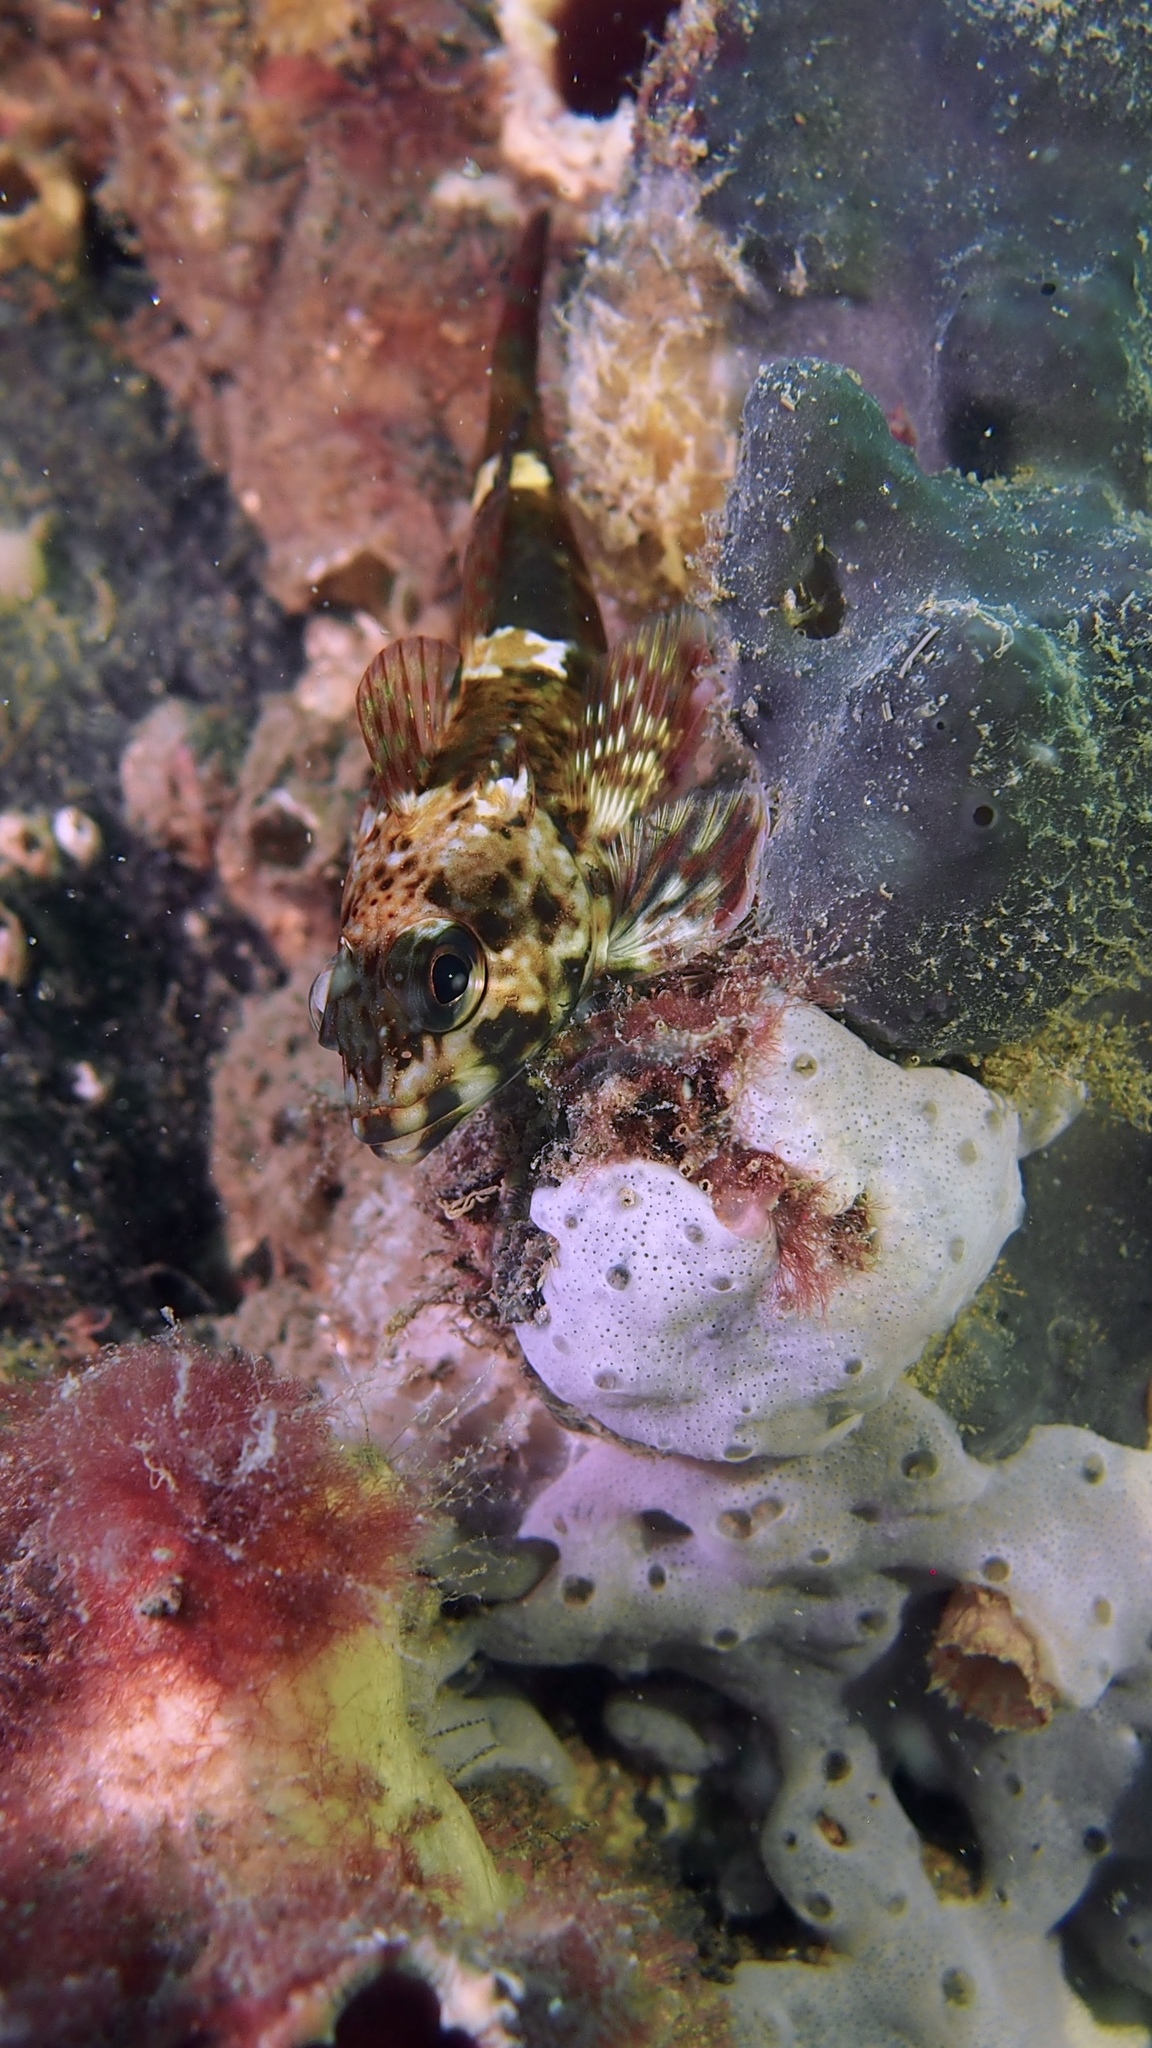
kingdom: Animalia
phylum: Chordata
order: Perciformes
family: Bovichtidae
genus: Bovichtus
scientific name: Bovichtus angustifrons
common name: Dragonet
